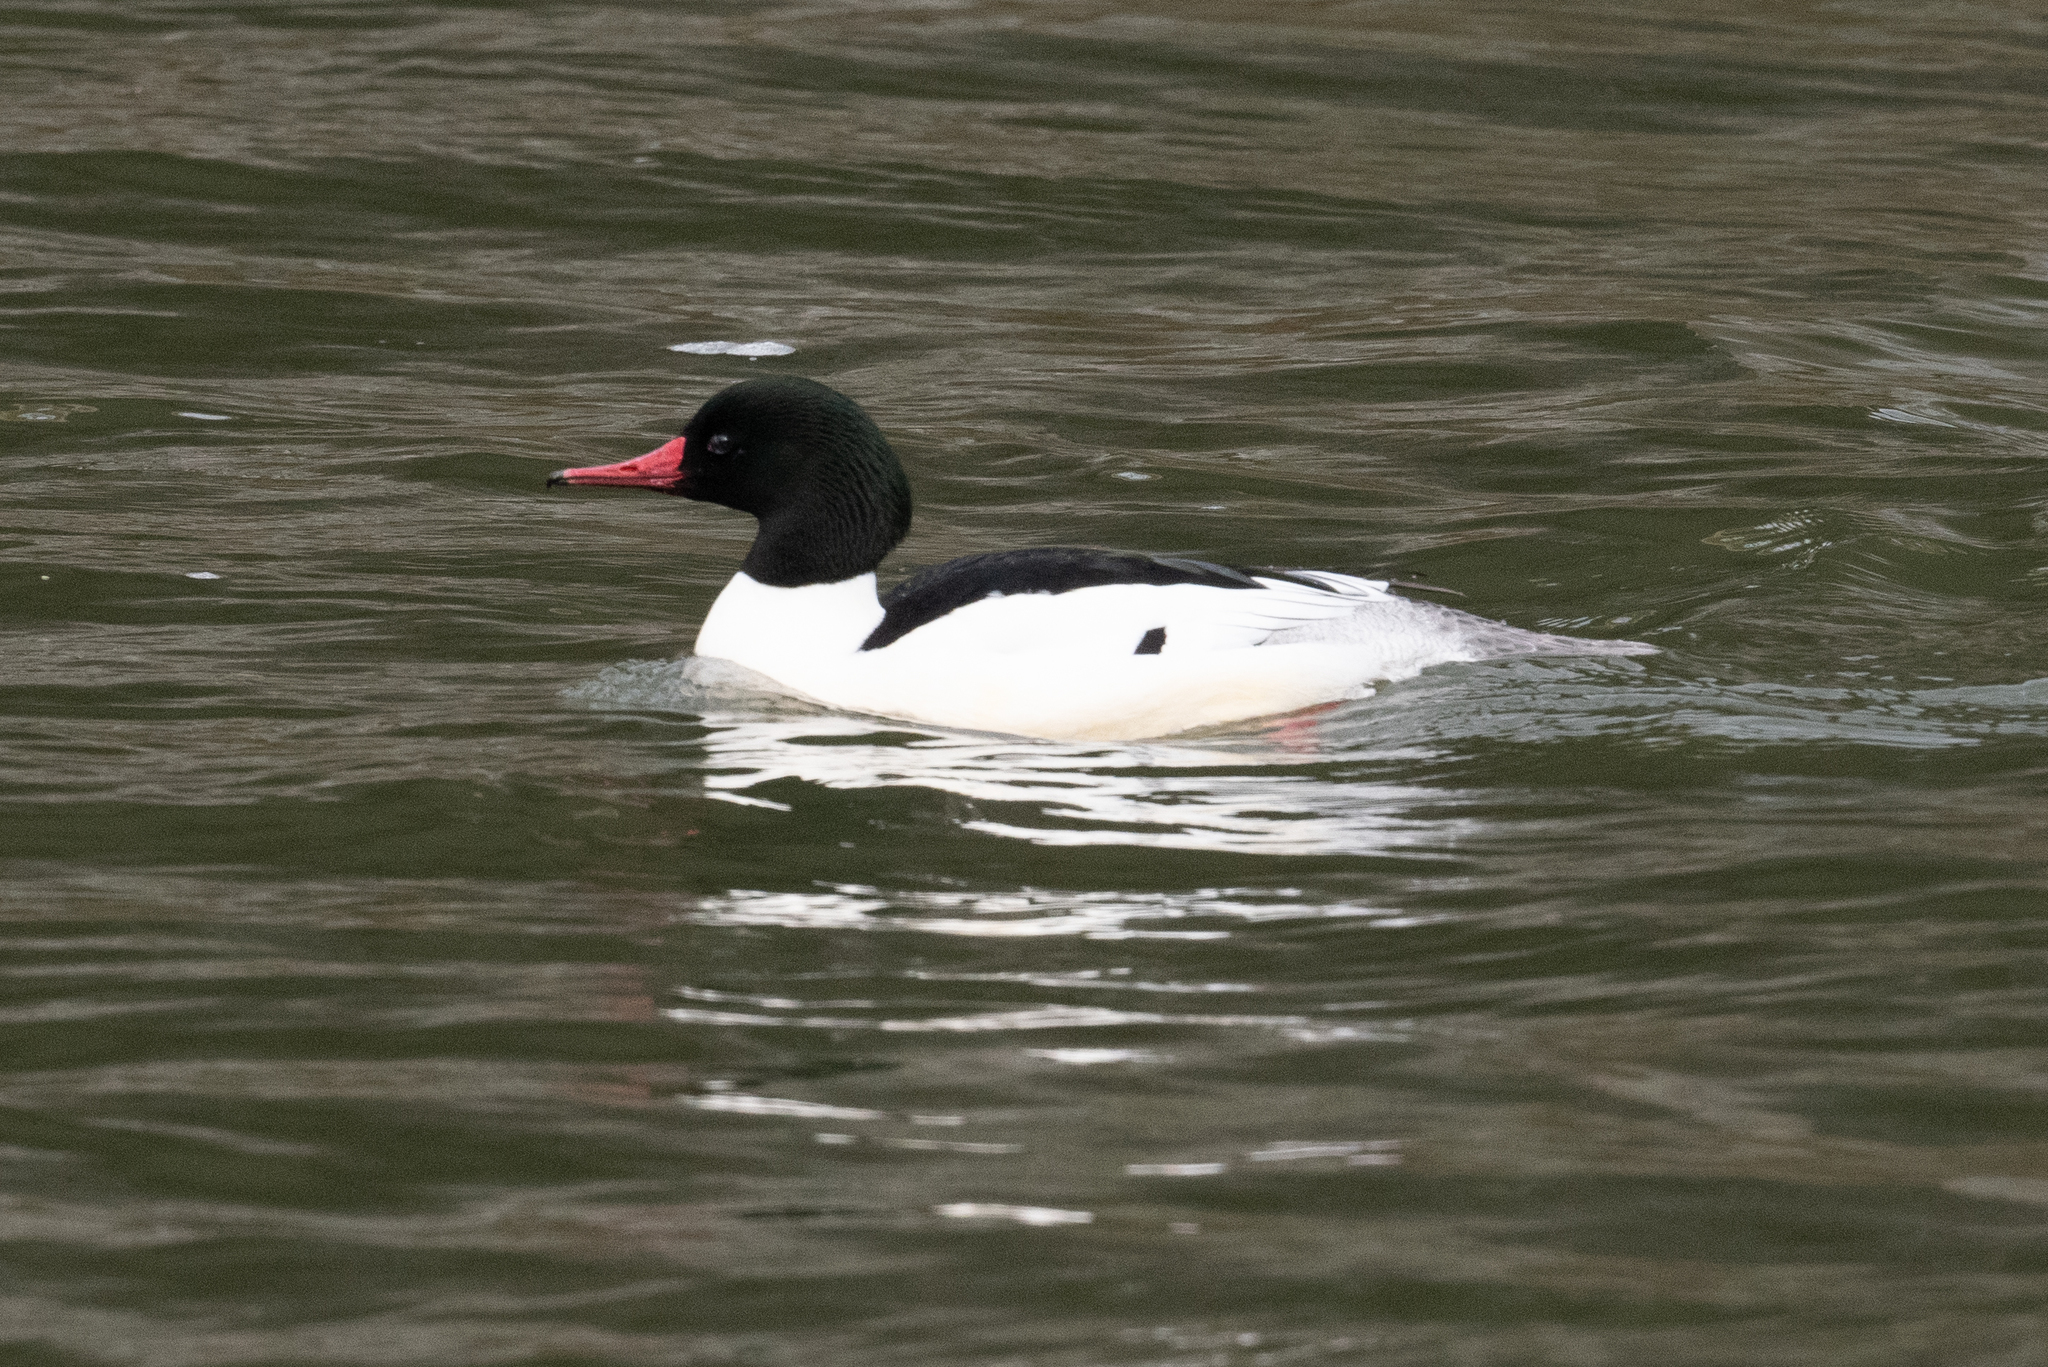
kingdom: Animalia
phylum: Chordata
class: Aves
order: Anseriformes
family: Anatidae
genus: Mergus
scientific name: Mergus merganser
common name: Common merganser
